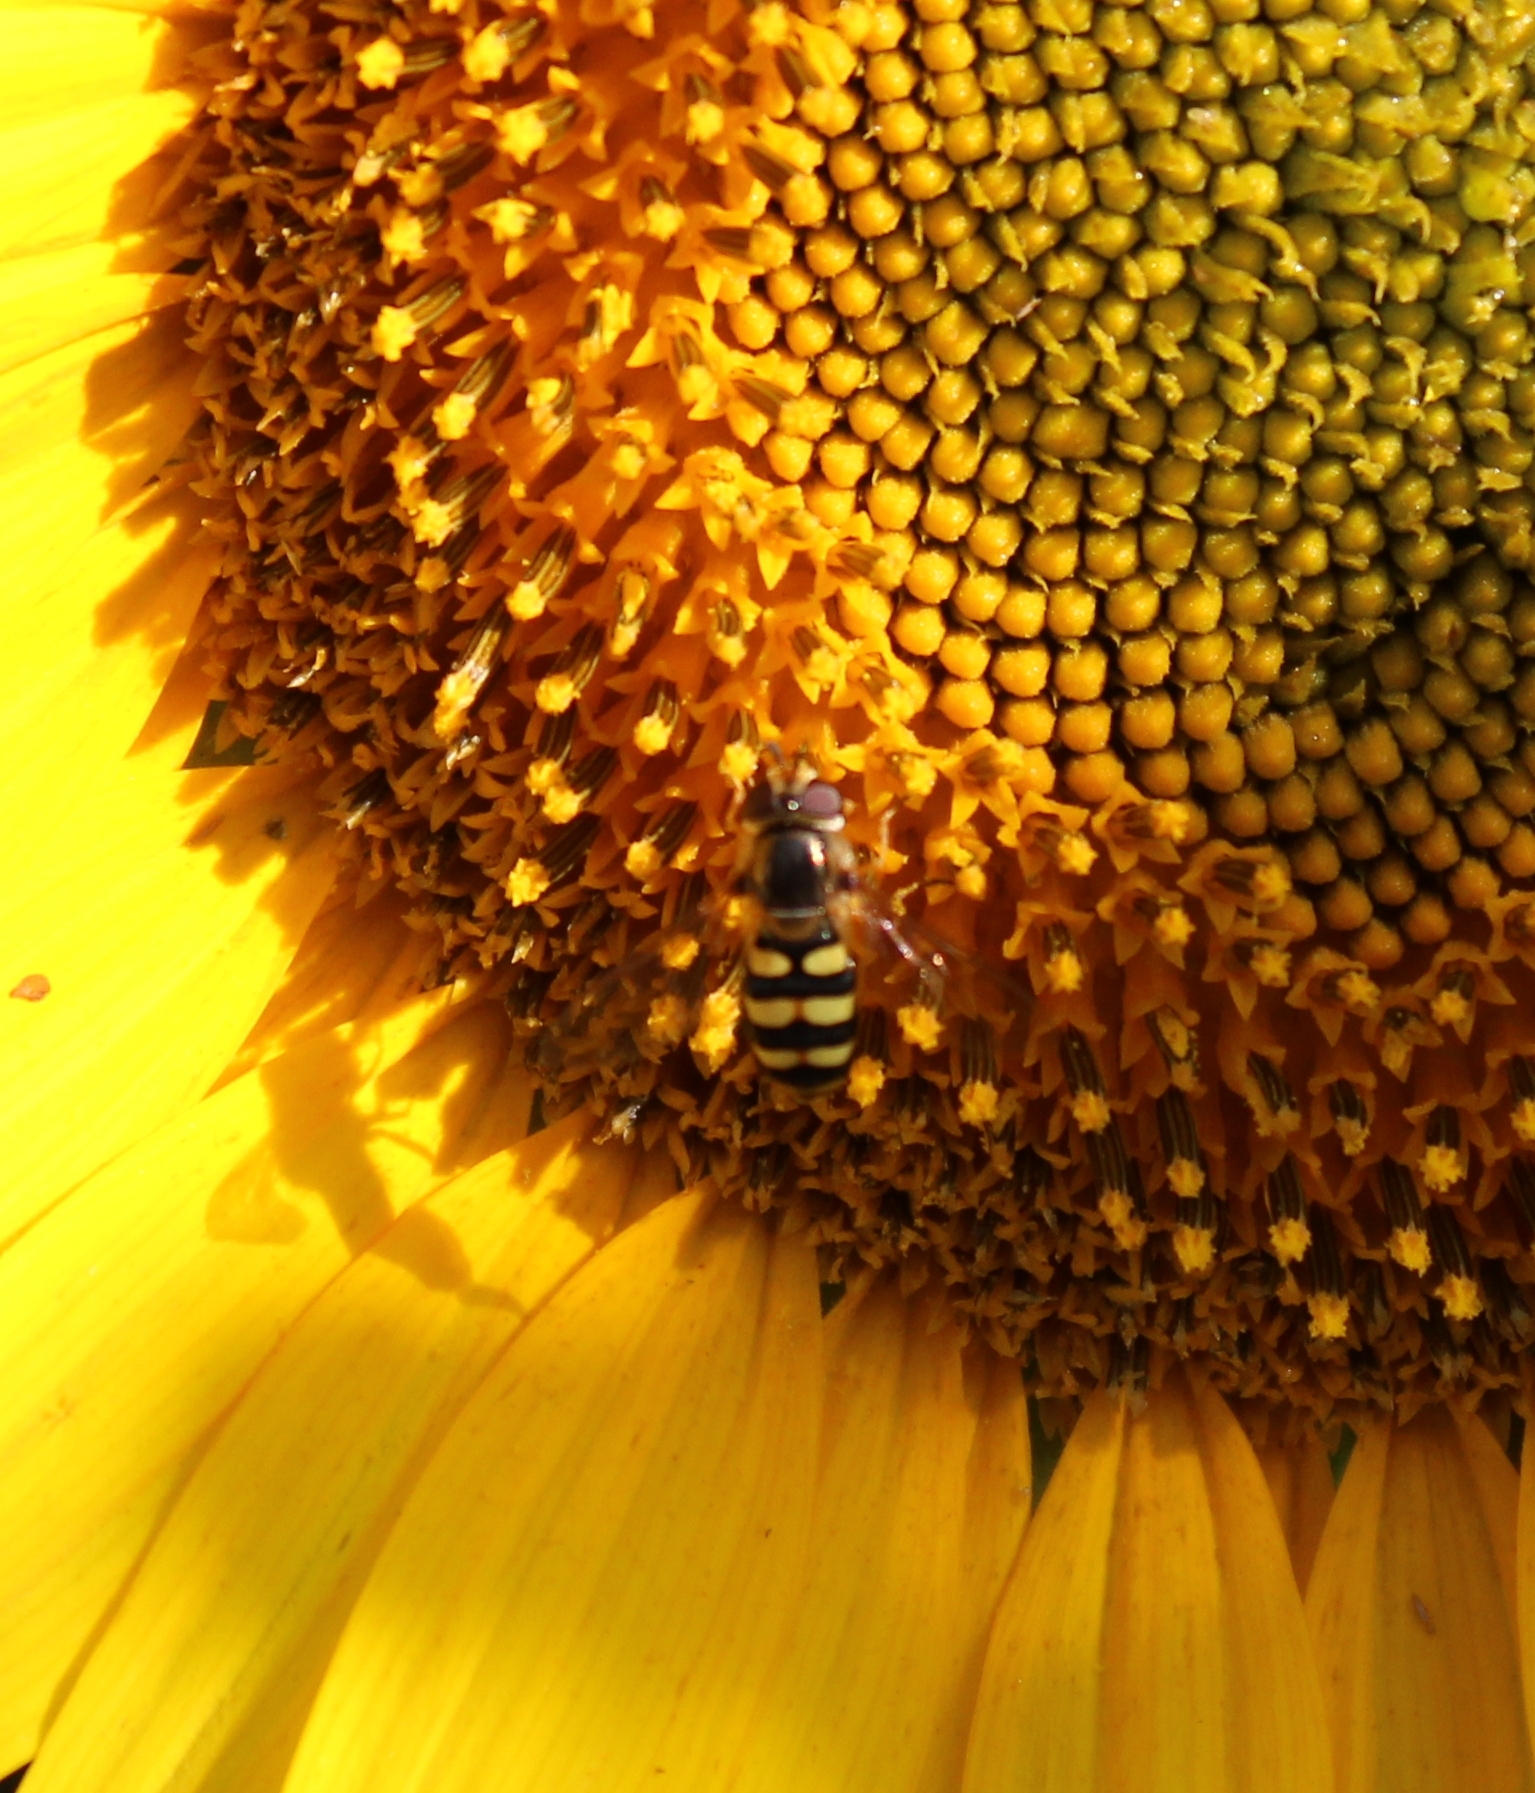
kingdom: Animalia
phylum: Arthropoda
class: Insecta
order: Diptera
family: Syrphidae
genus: Eupeodes
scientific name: Eupeodes fumipennis
